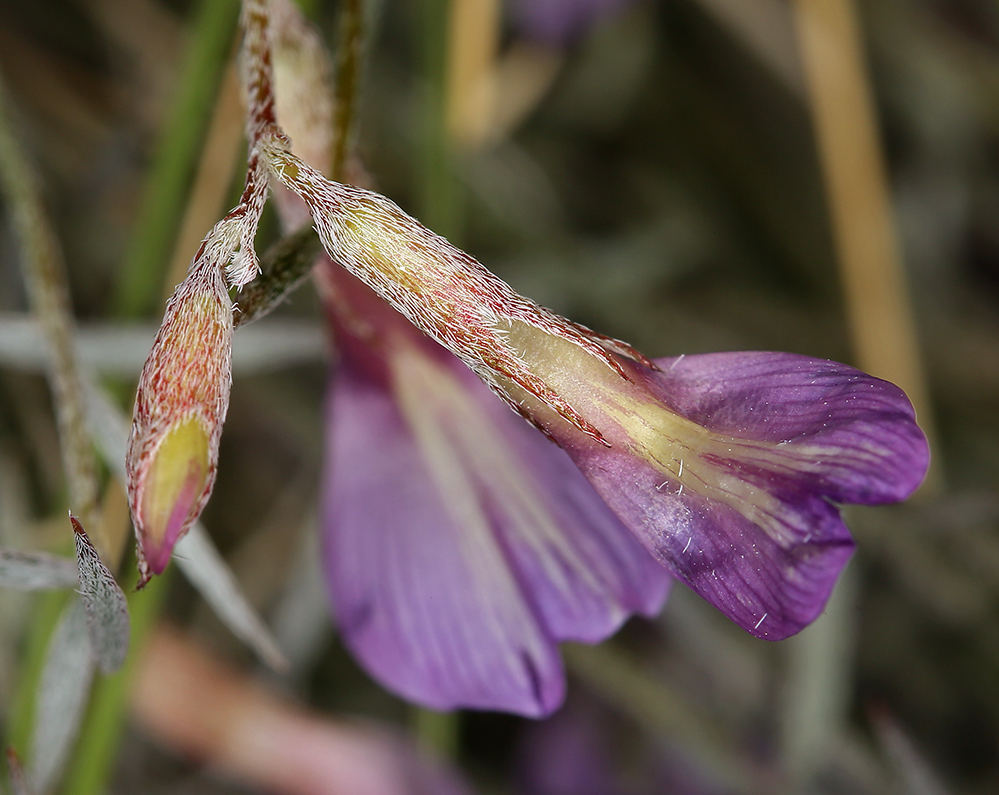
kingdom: Plantae
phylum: Tracheophyta
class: Magnoliopsida
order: Fabales
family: Fabaceae
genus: Astragalus
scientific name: Astragalus panamintensis
